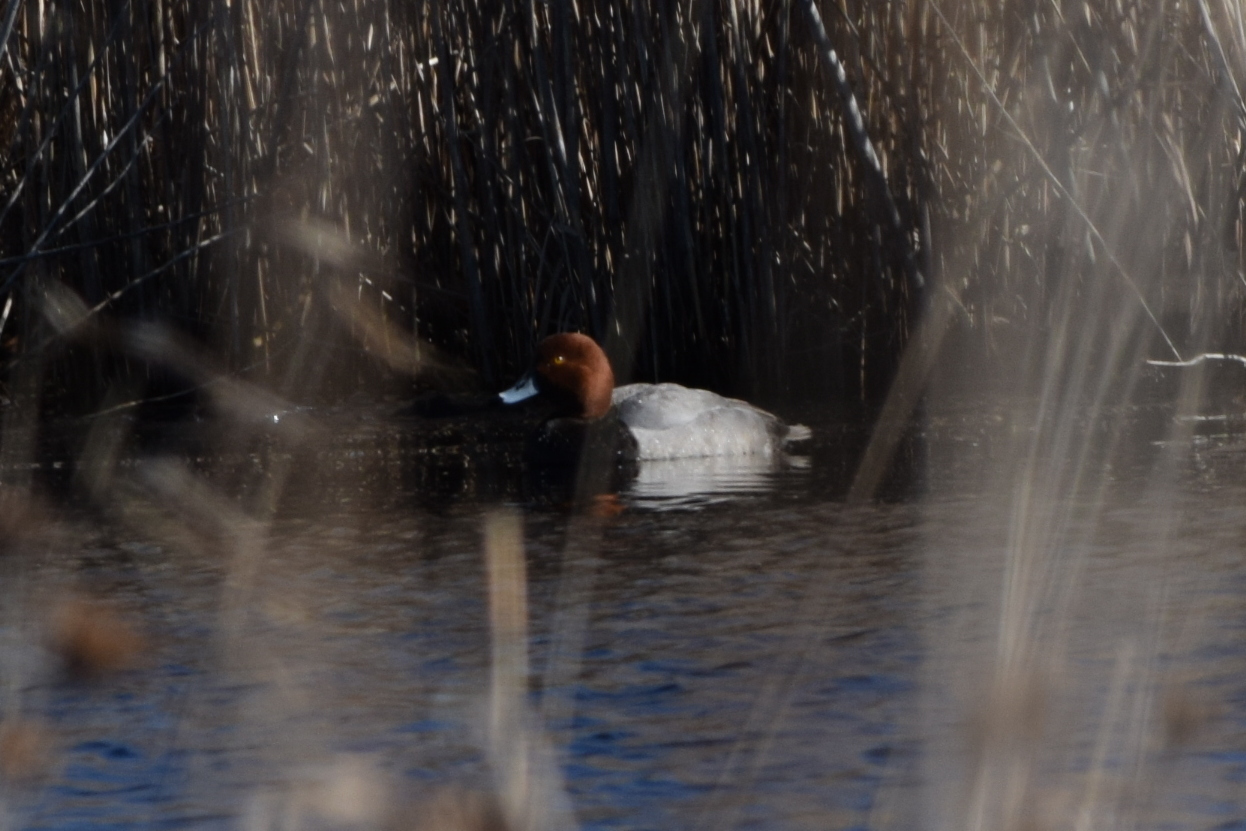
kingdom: Animalia
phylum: Chordata
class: Aves
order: Anseriformes
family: Anatidae
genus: Aythya
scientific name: Aythya americana
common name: Redhead
